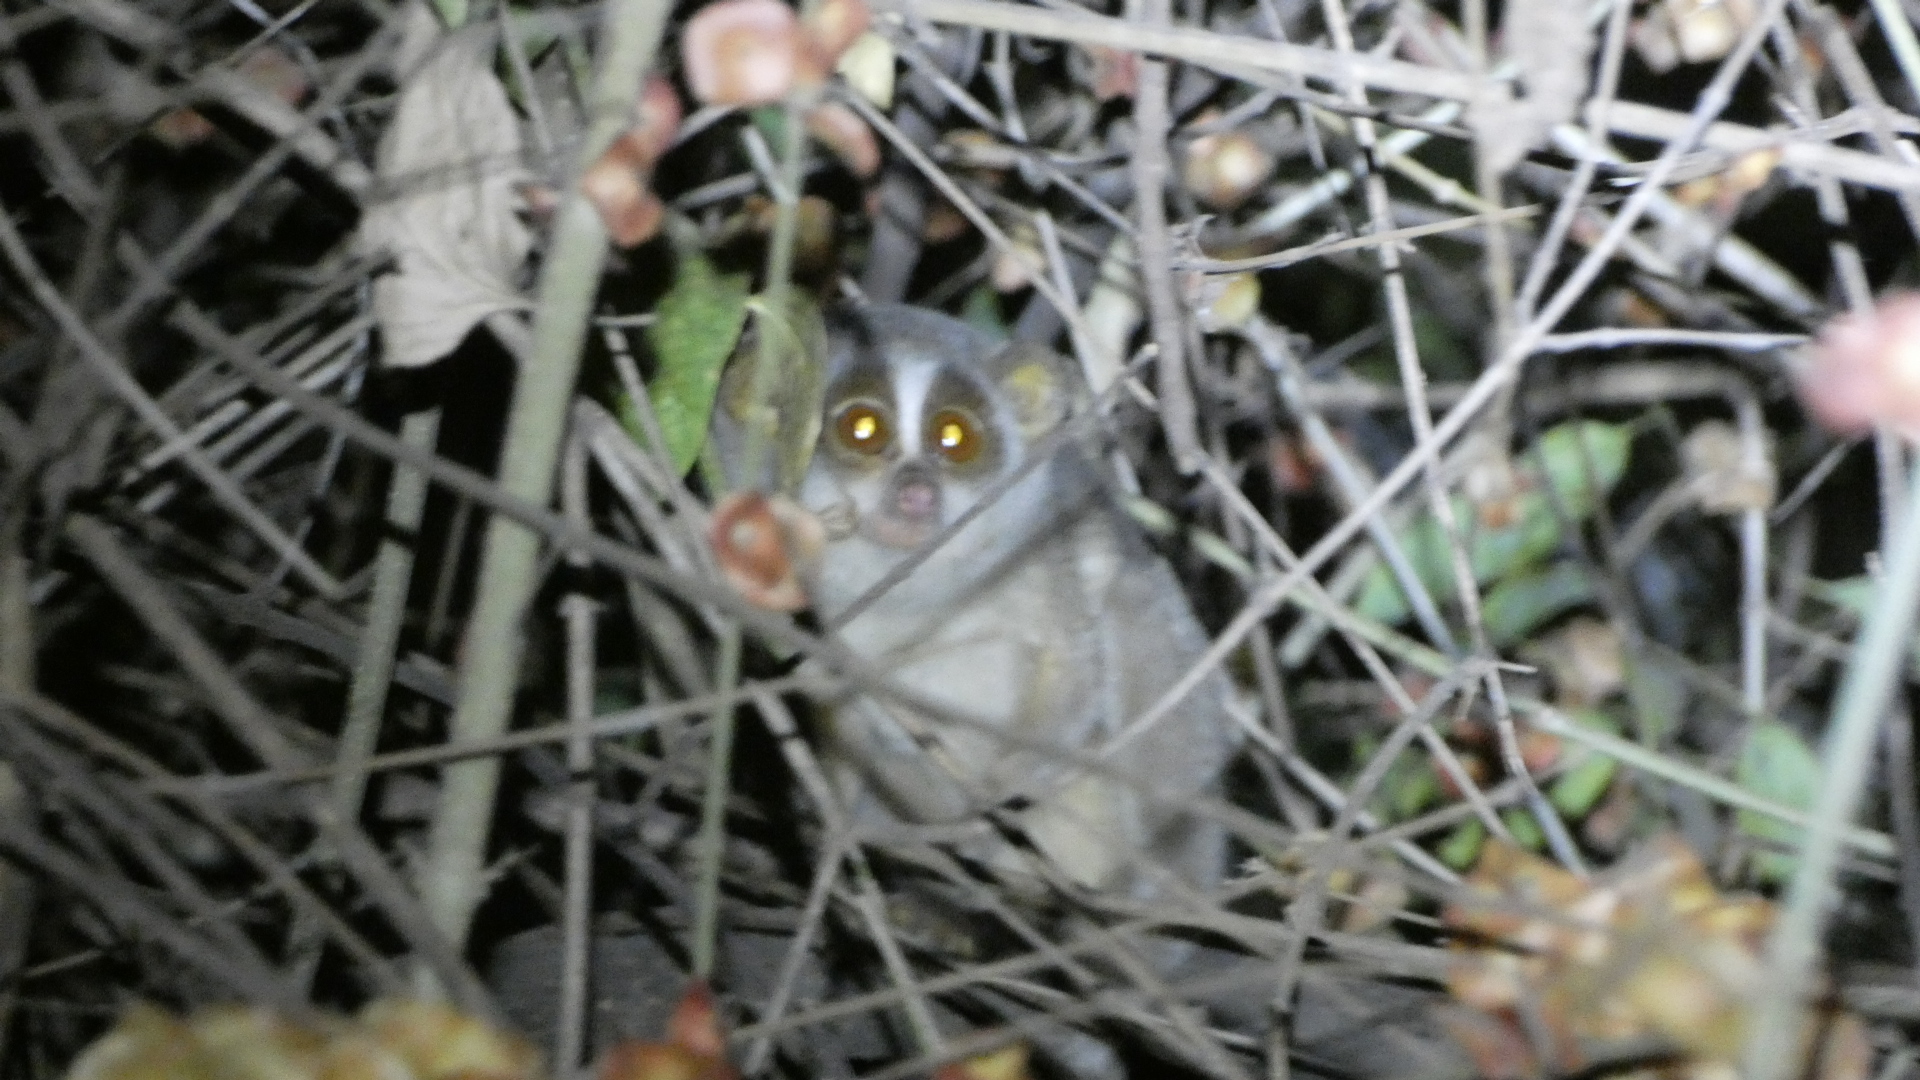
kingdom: Animalia
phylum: Chordata
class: Mammalia
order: Primates
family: Lorisidae
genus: Loris
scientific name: Loris lydekkerianus
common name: Gray slender loris
